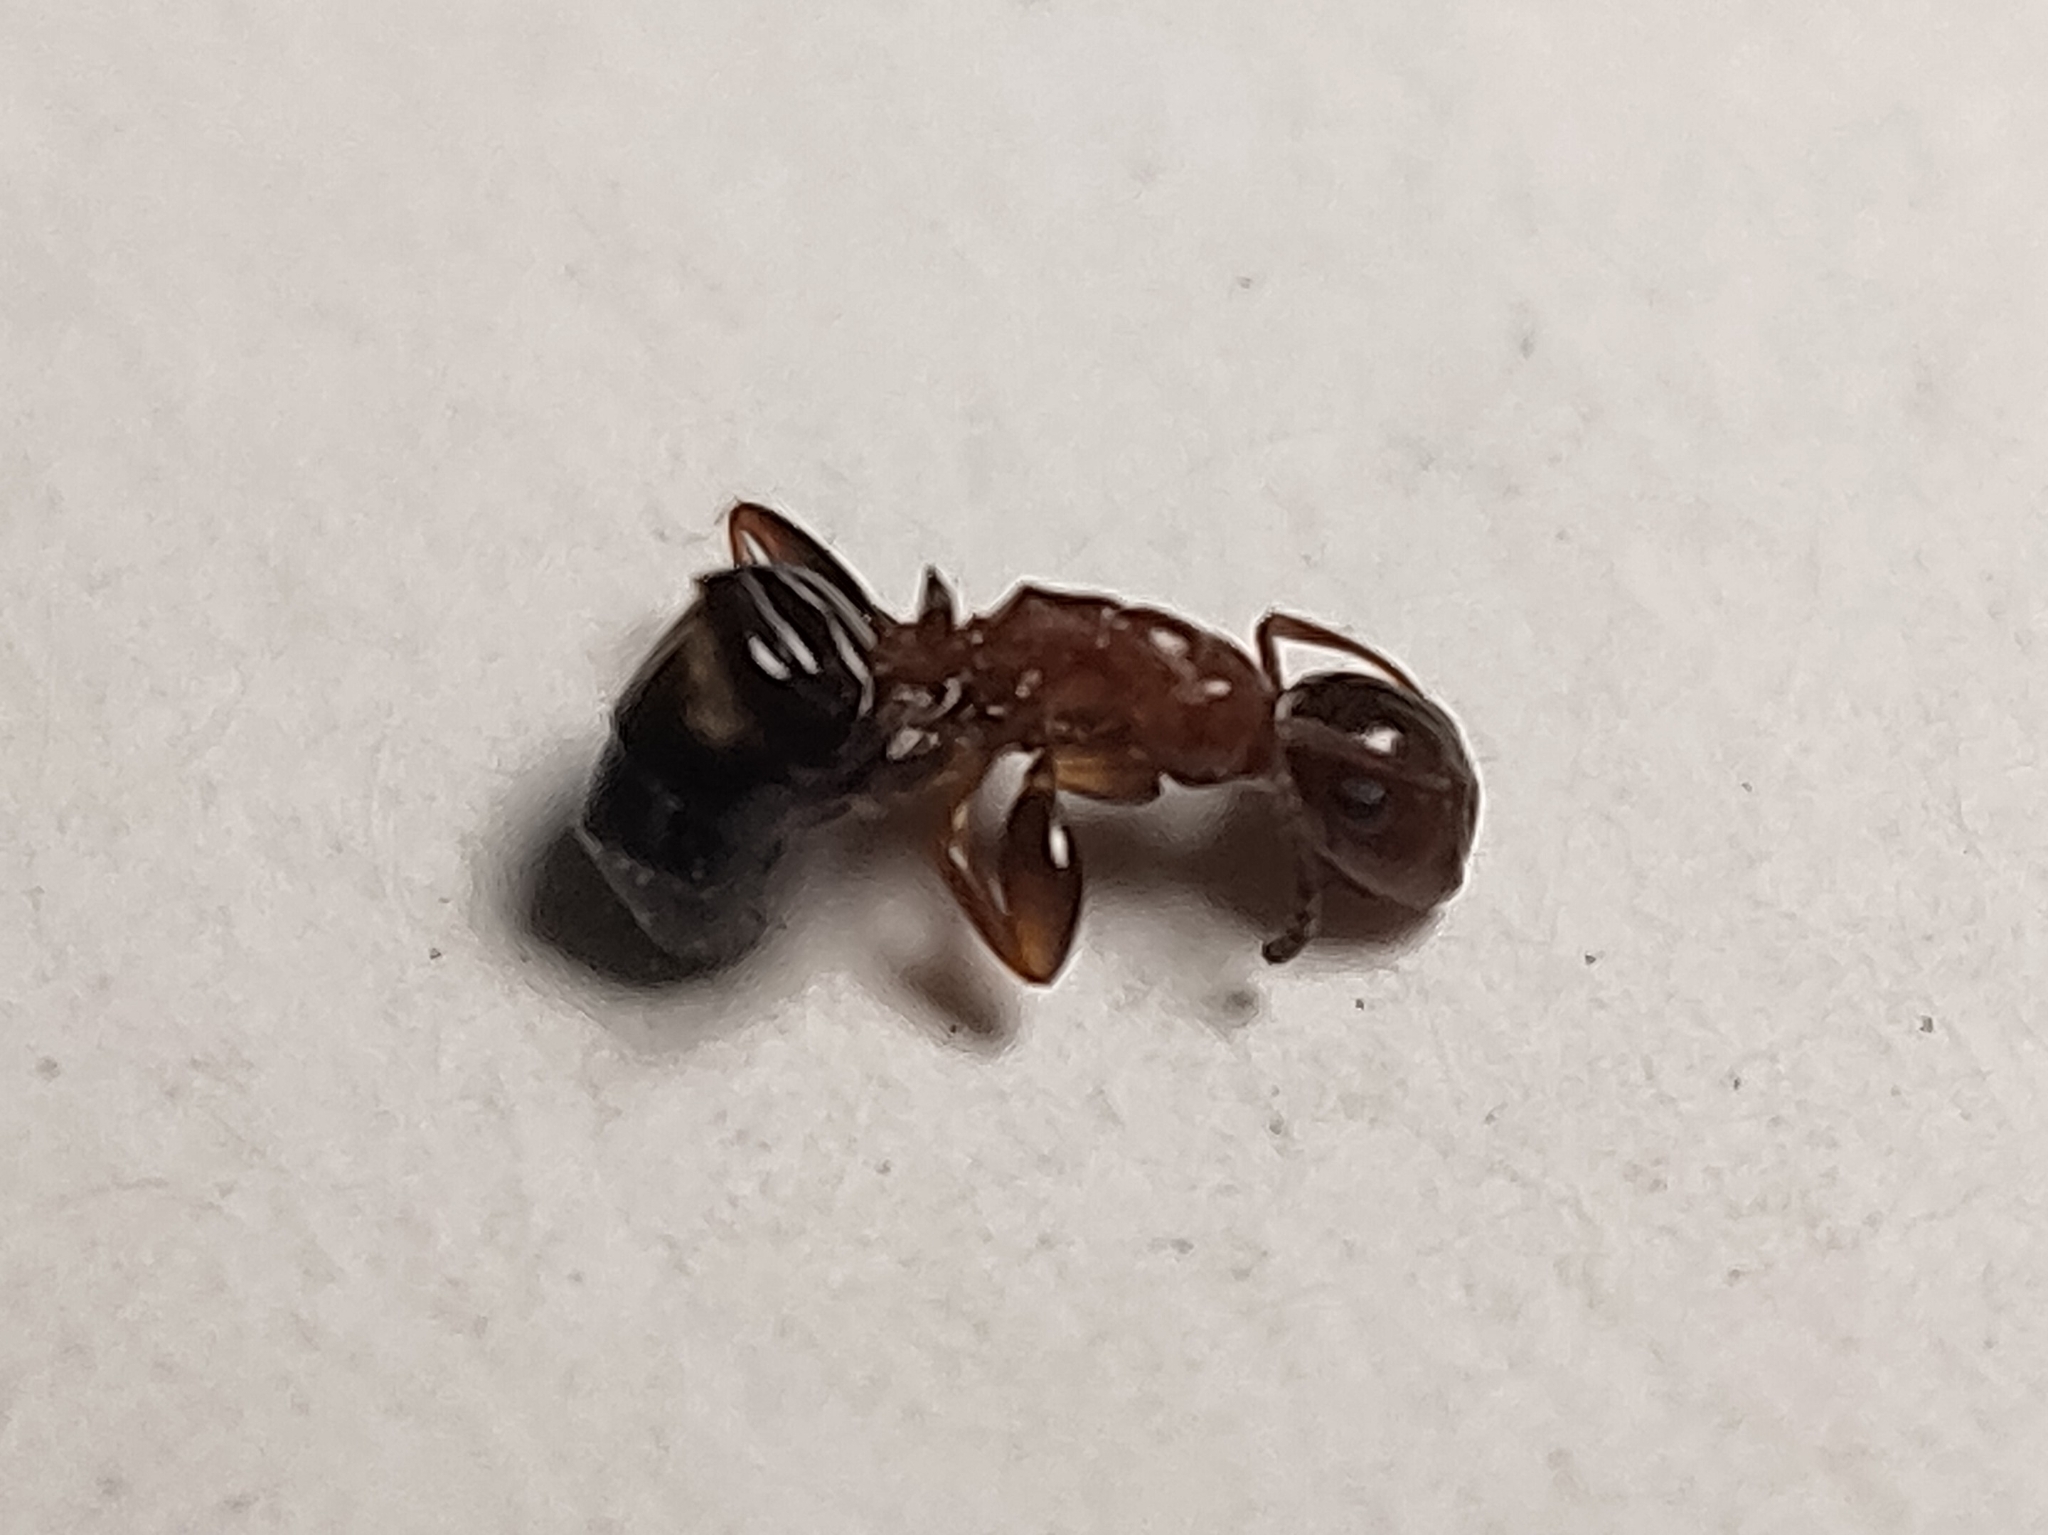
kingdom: Animalia
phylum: Arthropoda
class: Insecta
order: Hymenoptera
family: Formicidae
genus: Camponotus
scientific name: Camponotus truncatus
